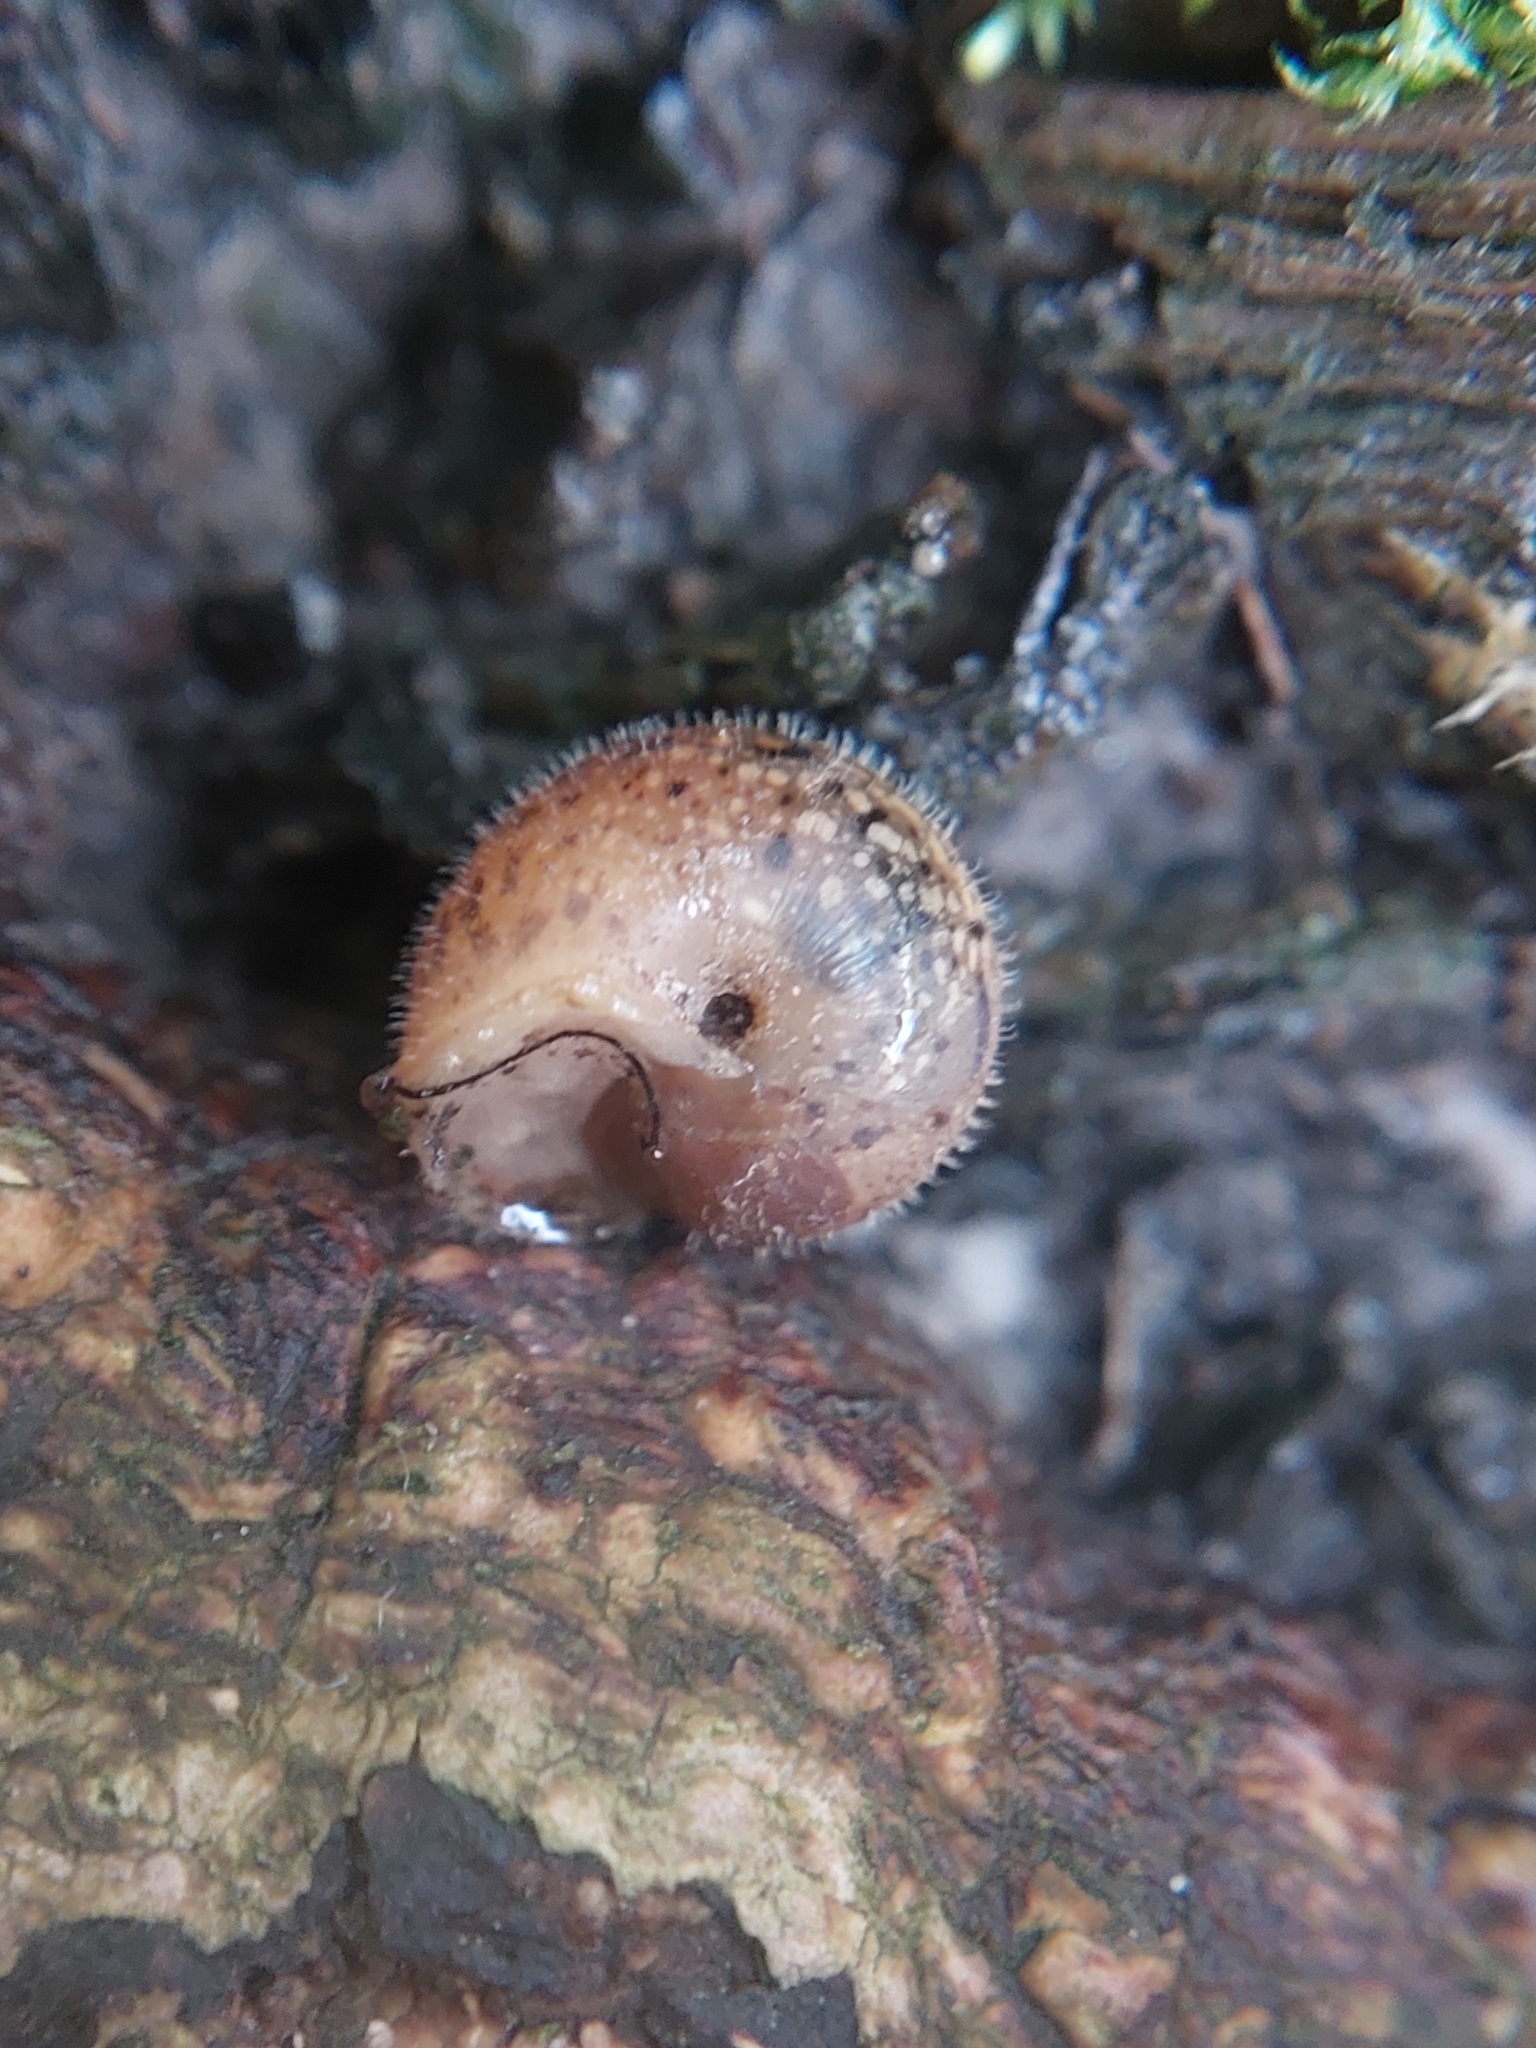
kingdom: Animalia
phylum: Mollusca
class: Gastropoda
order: Stylommatophora
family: Hygromiidae
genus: Euomphalia
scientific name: Euomphalia strigella
